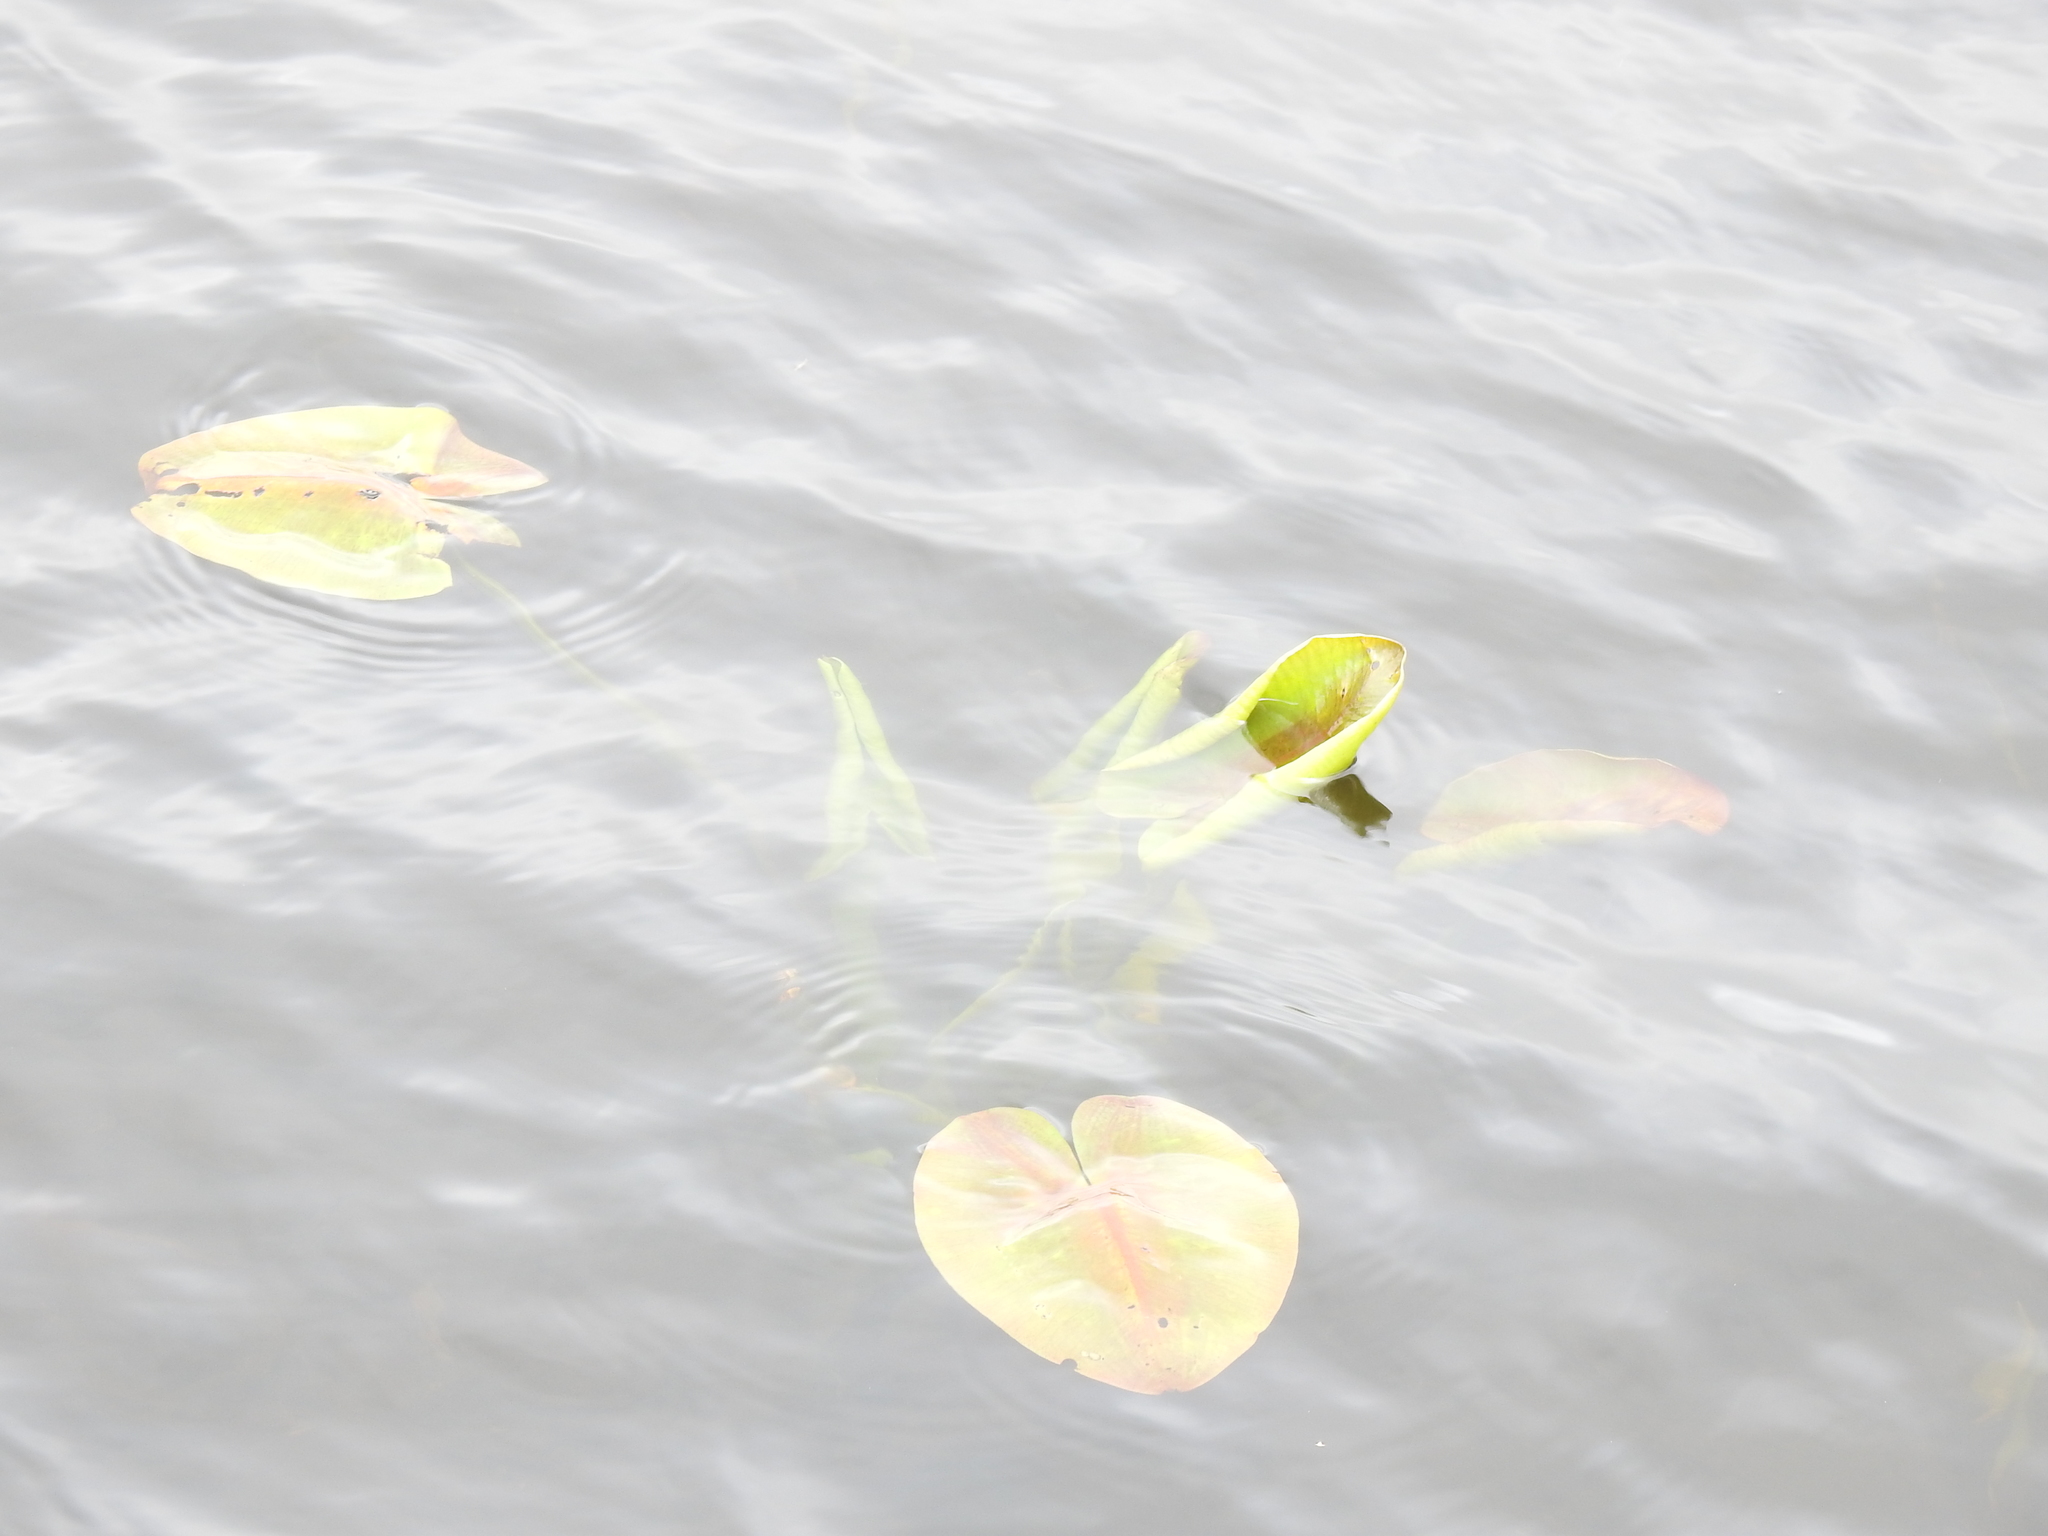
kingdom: Plantae
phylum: Tracheophyta
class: Magnoliopsida
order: Nymphaeales
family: Nymphaeaceae
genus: Nuphar
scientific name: Nuphar variegata
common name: Beaver-root
